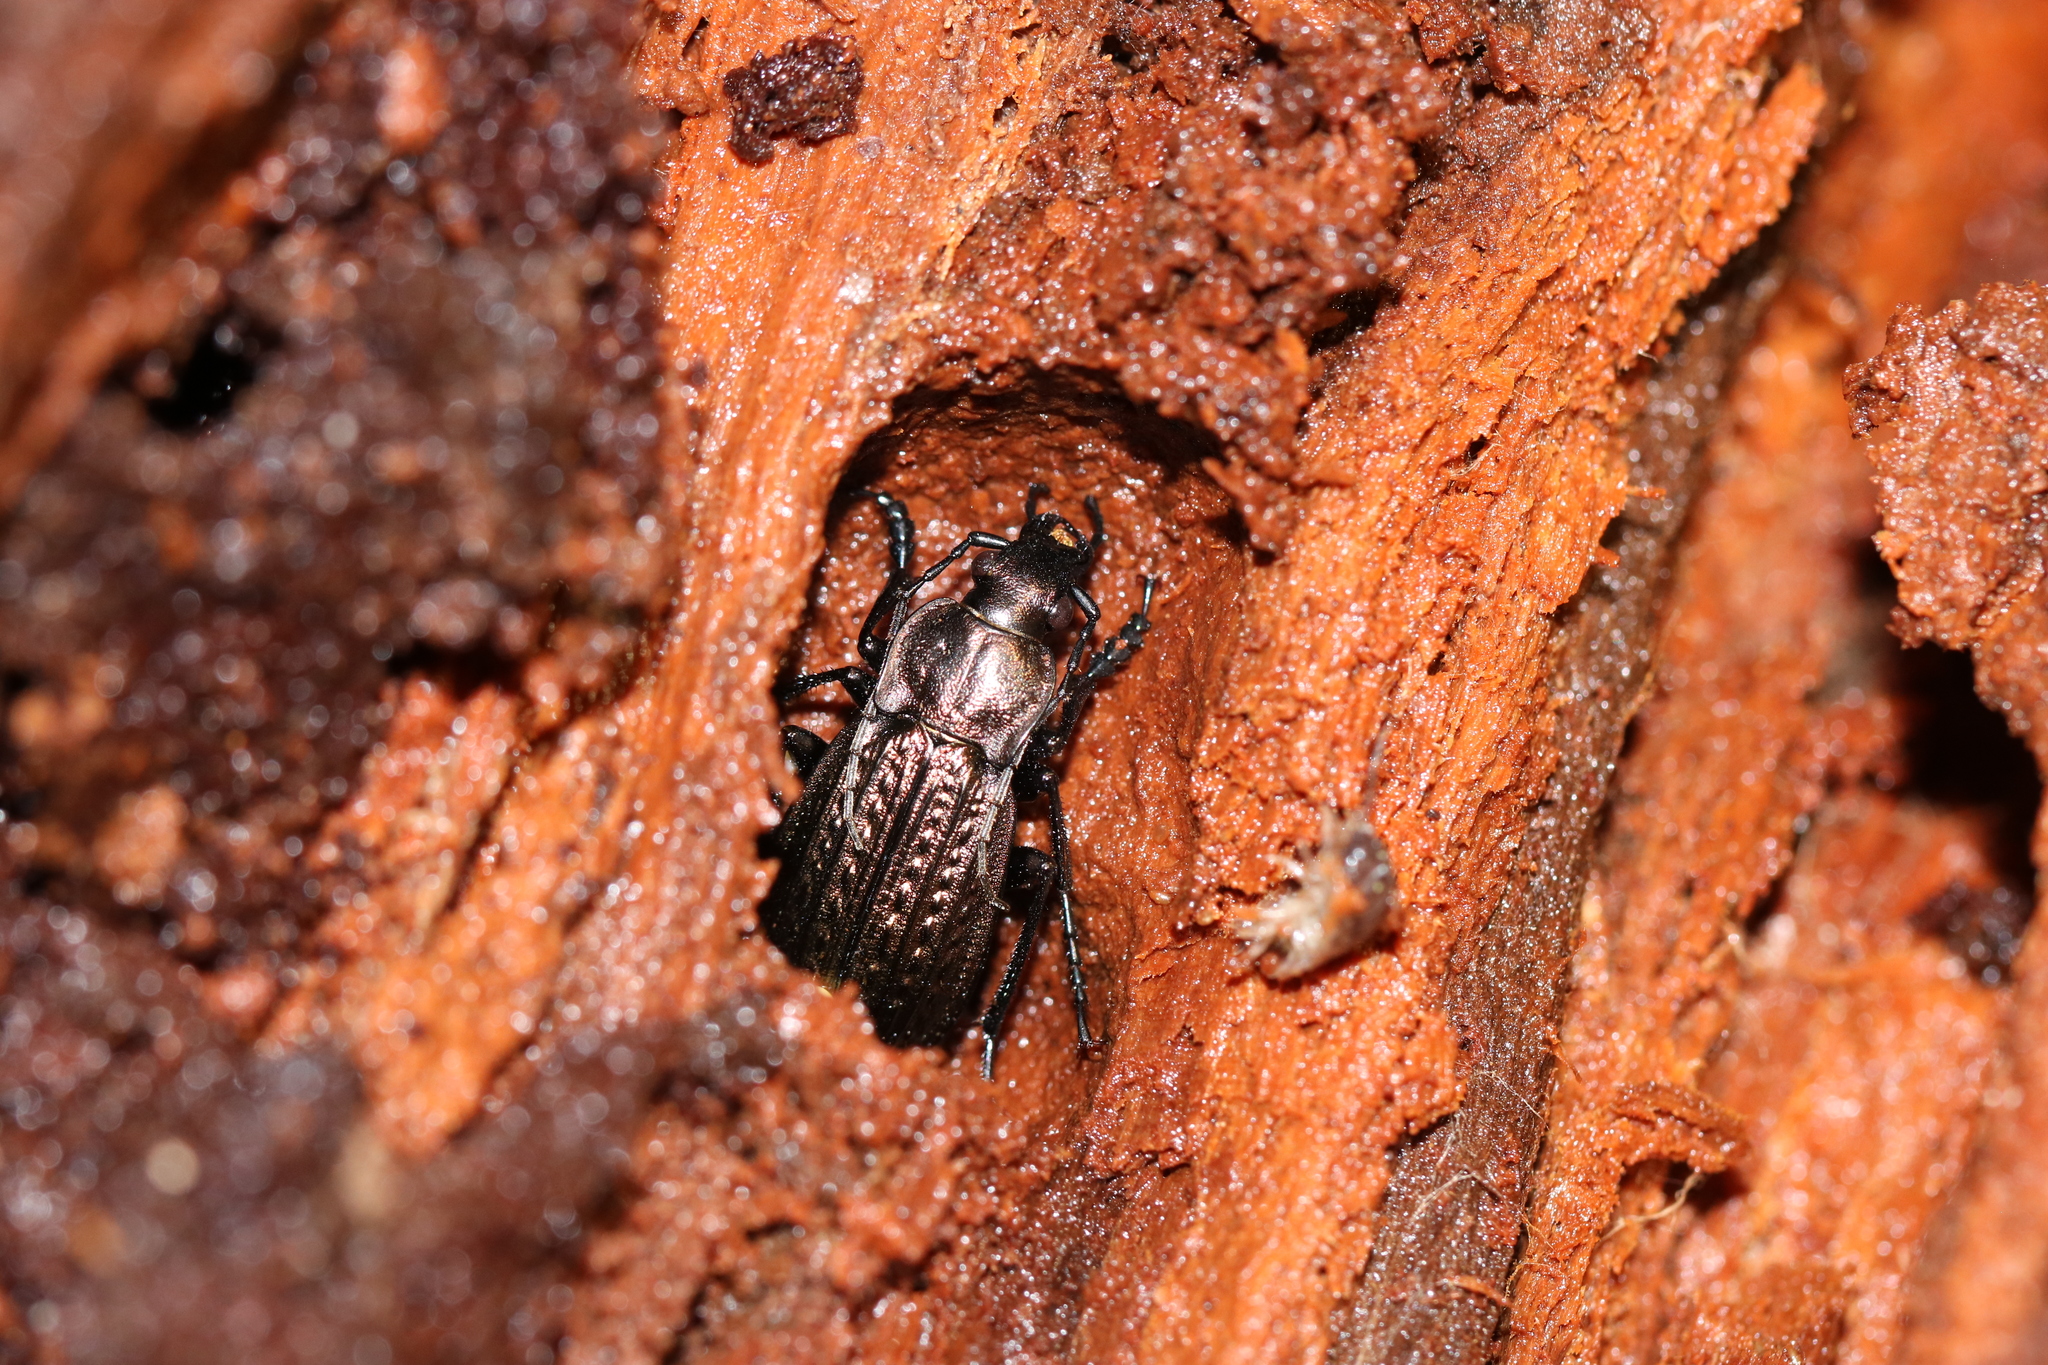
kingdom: Animalia
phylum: Arthropoda
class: Insecta
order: Coleoptera
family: Carabidae
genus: Carabus
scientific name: Carabus granulatus
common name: Granulate ground beetle
